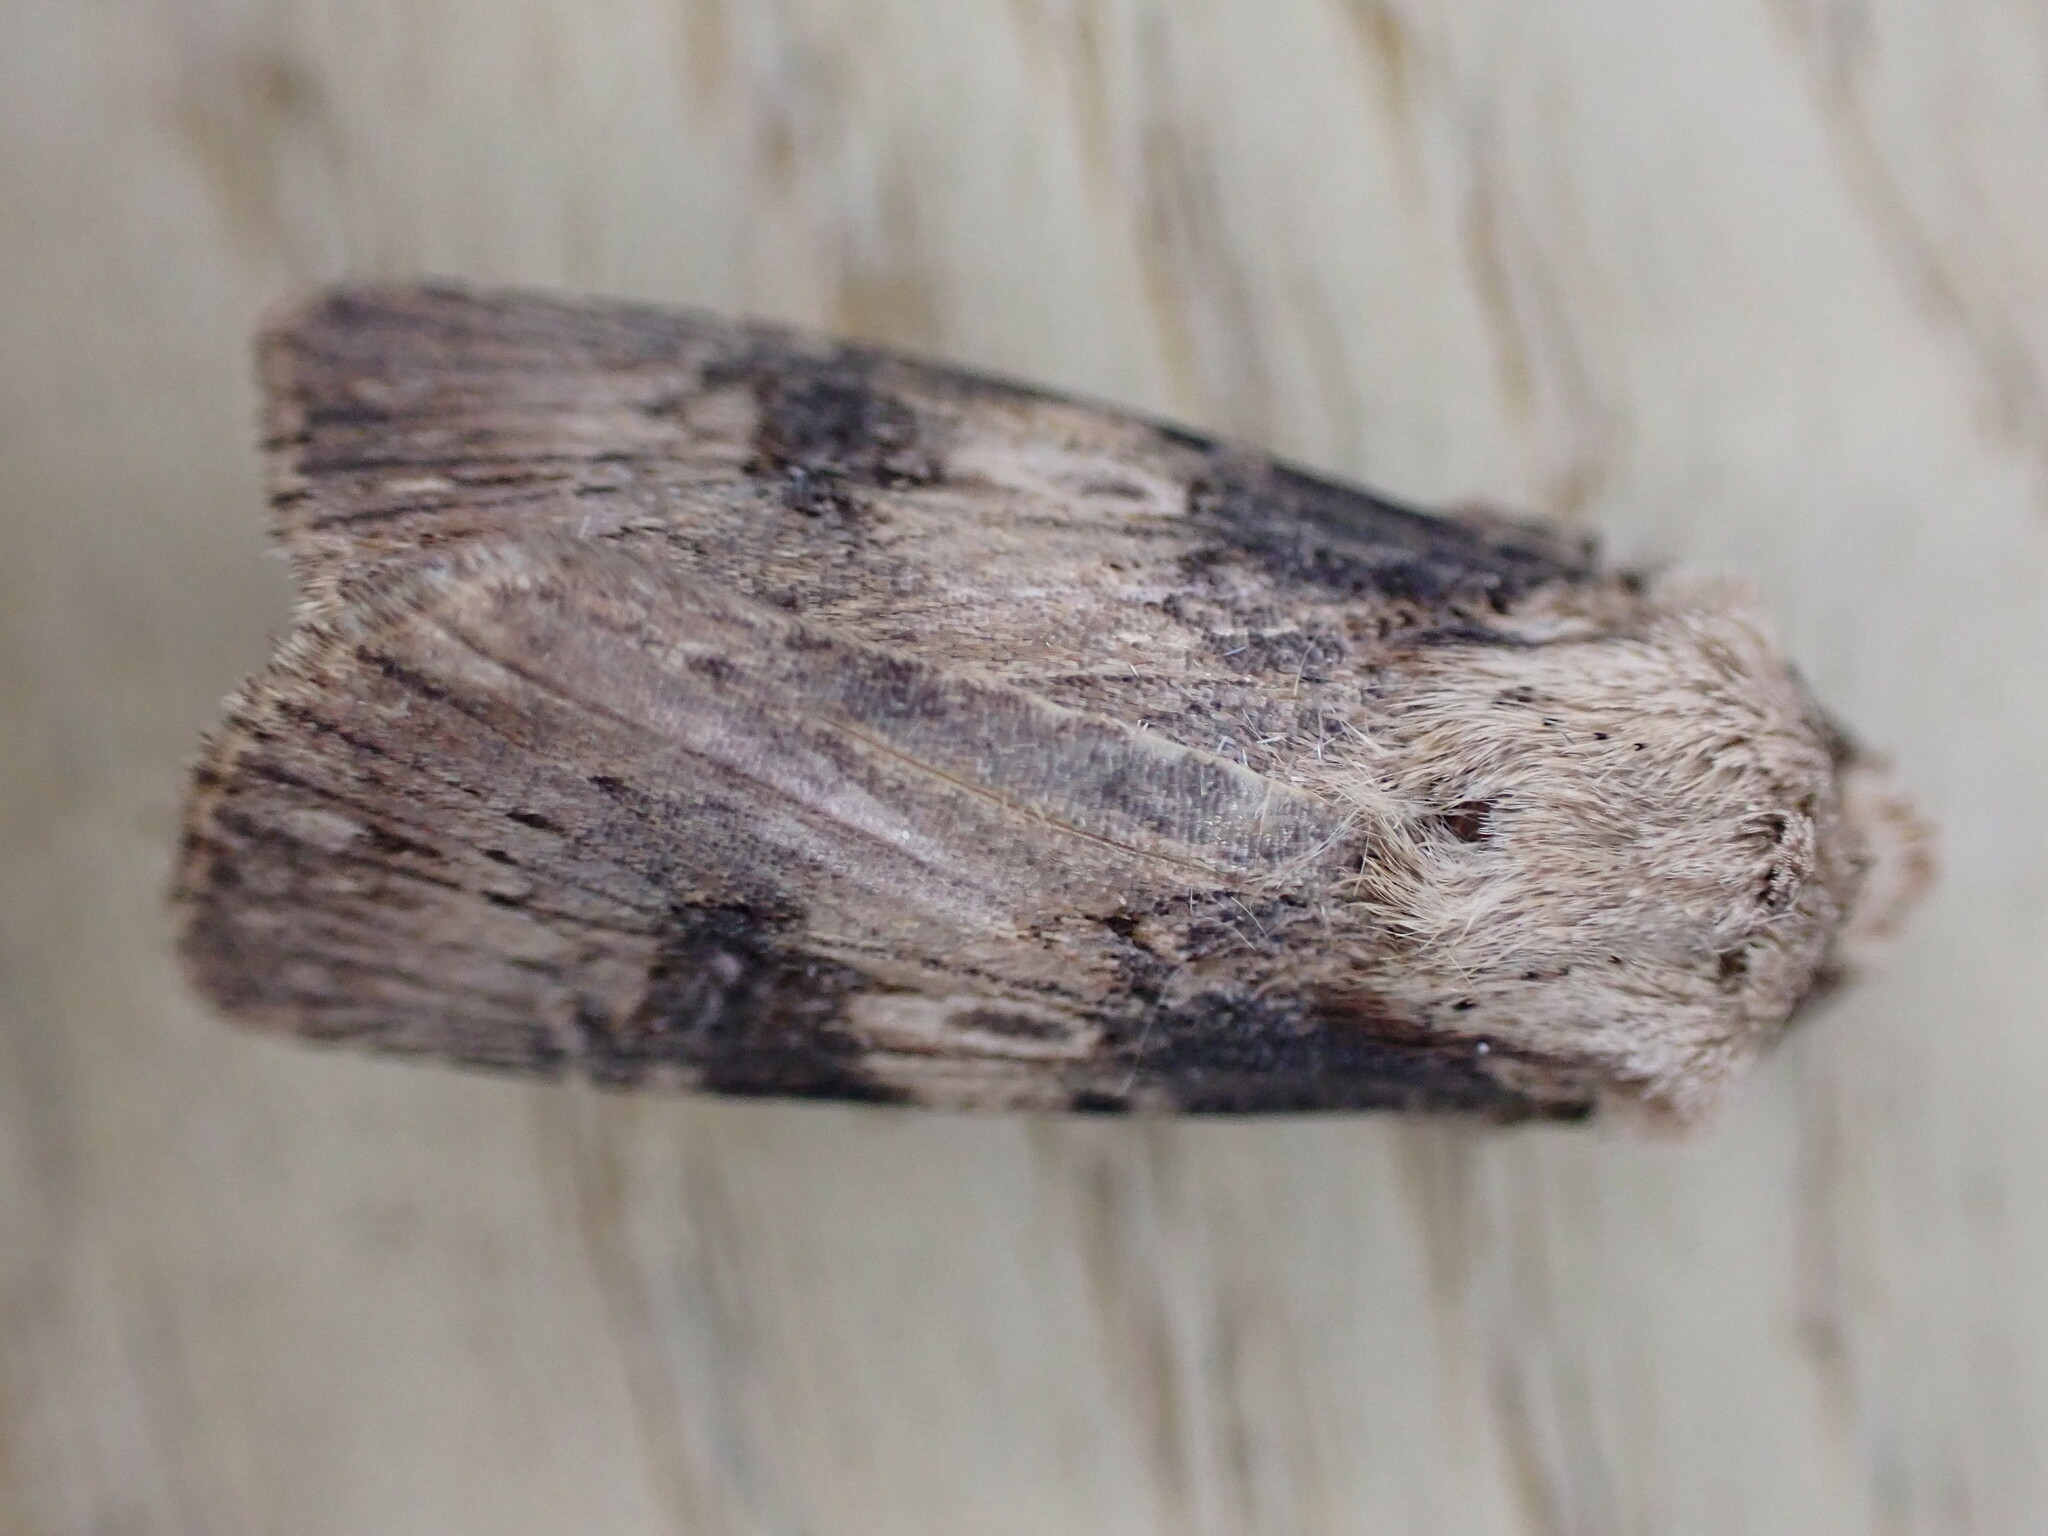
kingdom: Animalia
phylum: Arthropoda
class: Insecta
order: Lepidoptera
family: Noctuidae
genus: Agrotis
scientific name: Agrotis puta
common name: Shuttle-shaped dart
